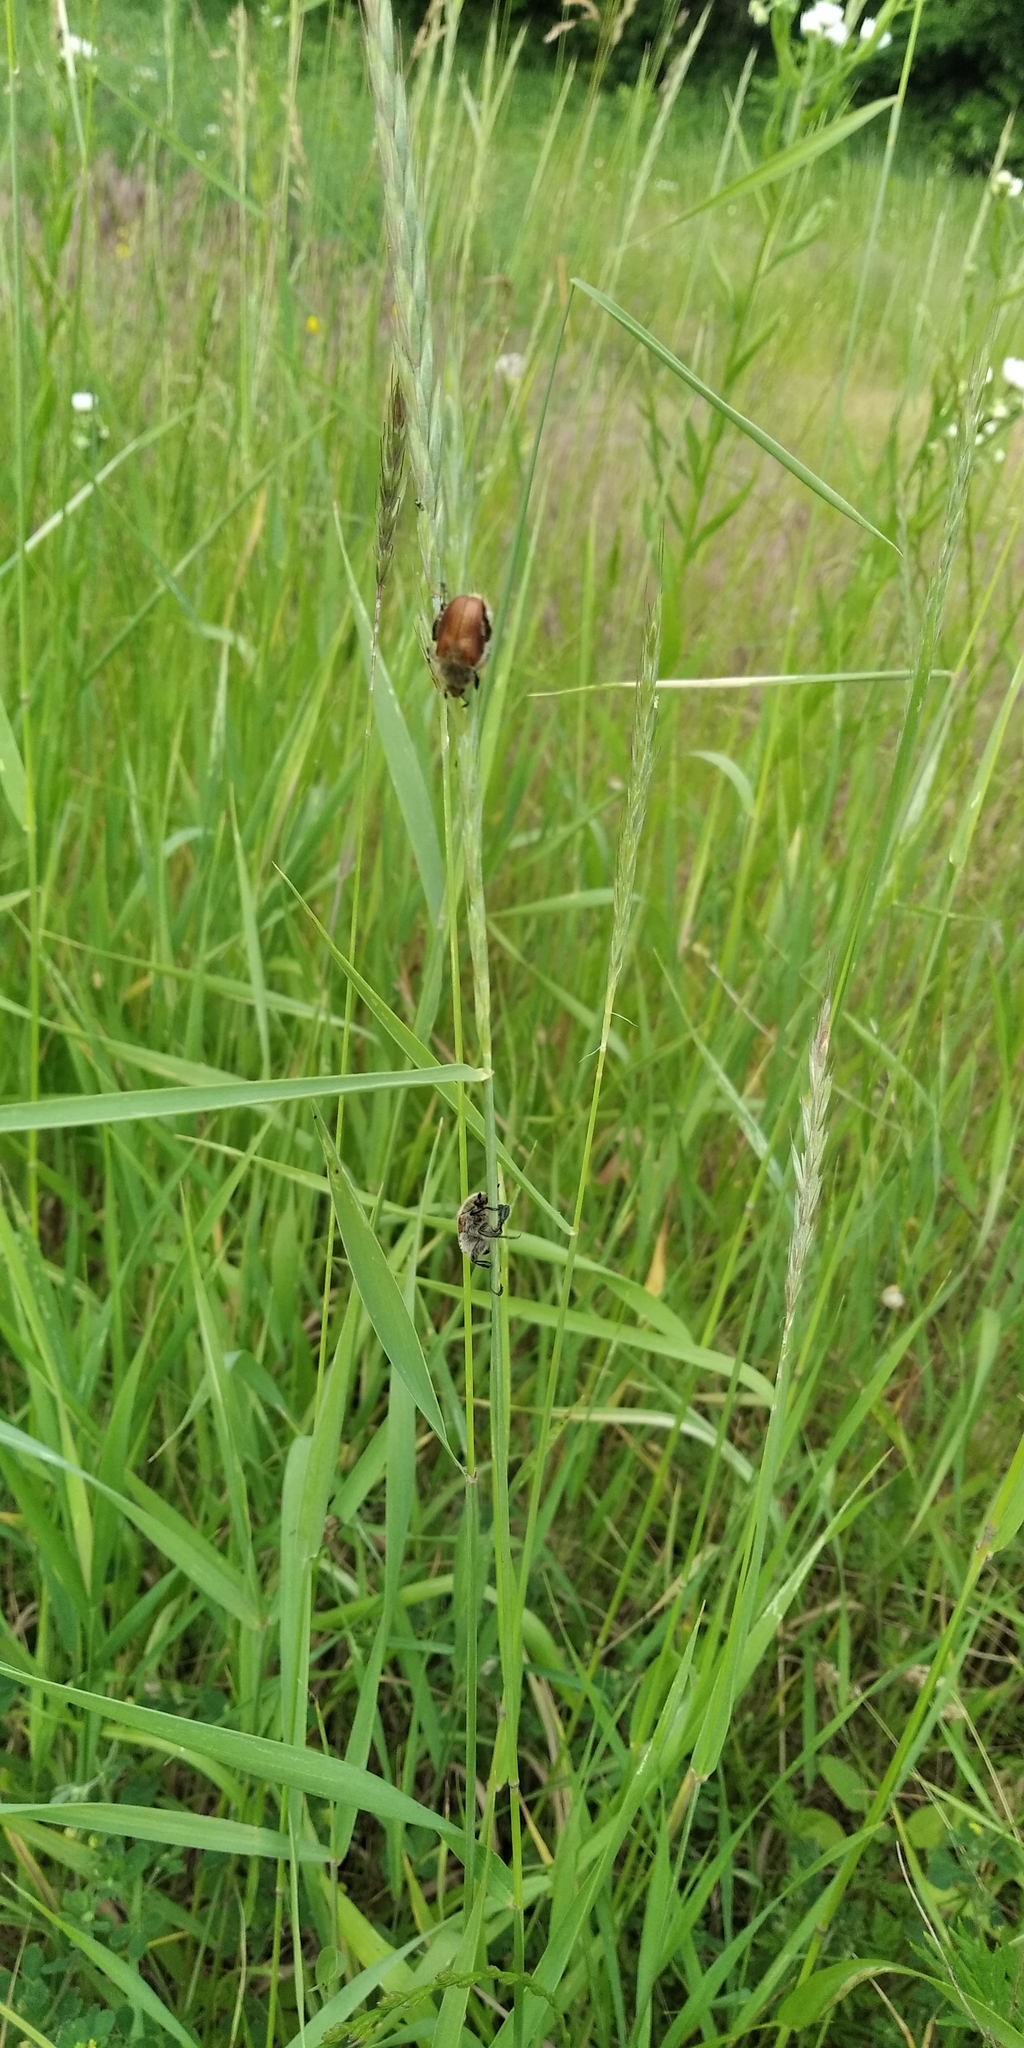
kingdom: Animalia
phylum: Arthropoda
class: Insecta
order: Coleoptera
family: Scarabaeidae
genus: Chaetopteroplia
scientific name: Chaetopteroplia segetum
